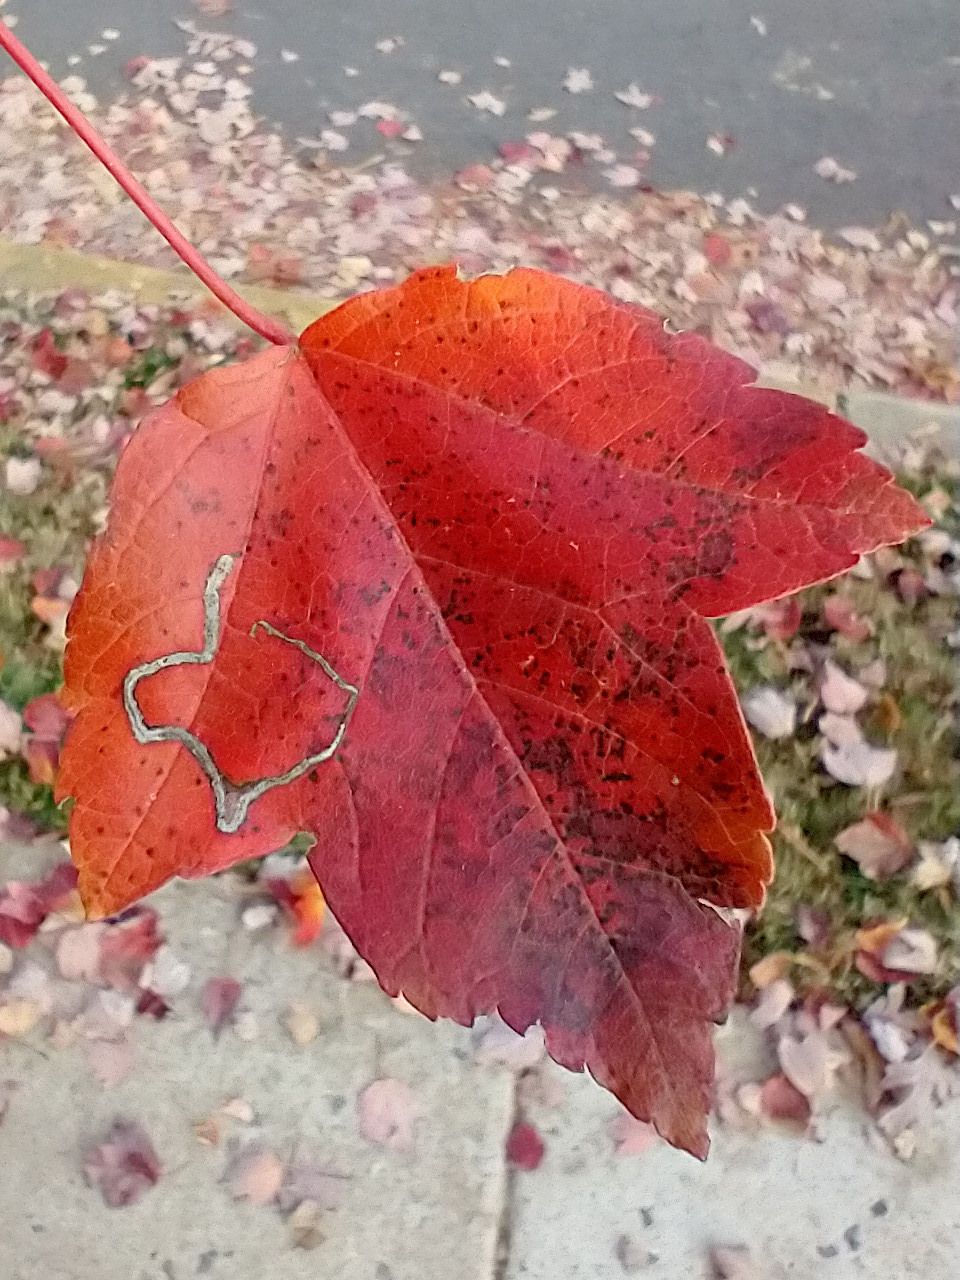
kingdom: Animalia
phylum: Arthropoda
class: Insecta
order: Lepidoptera
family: Nepticulidae
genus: Glaucolepis
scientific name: Glaucolepis saccharella
